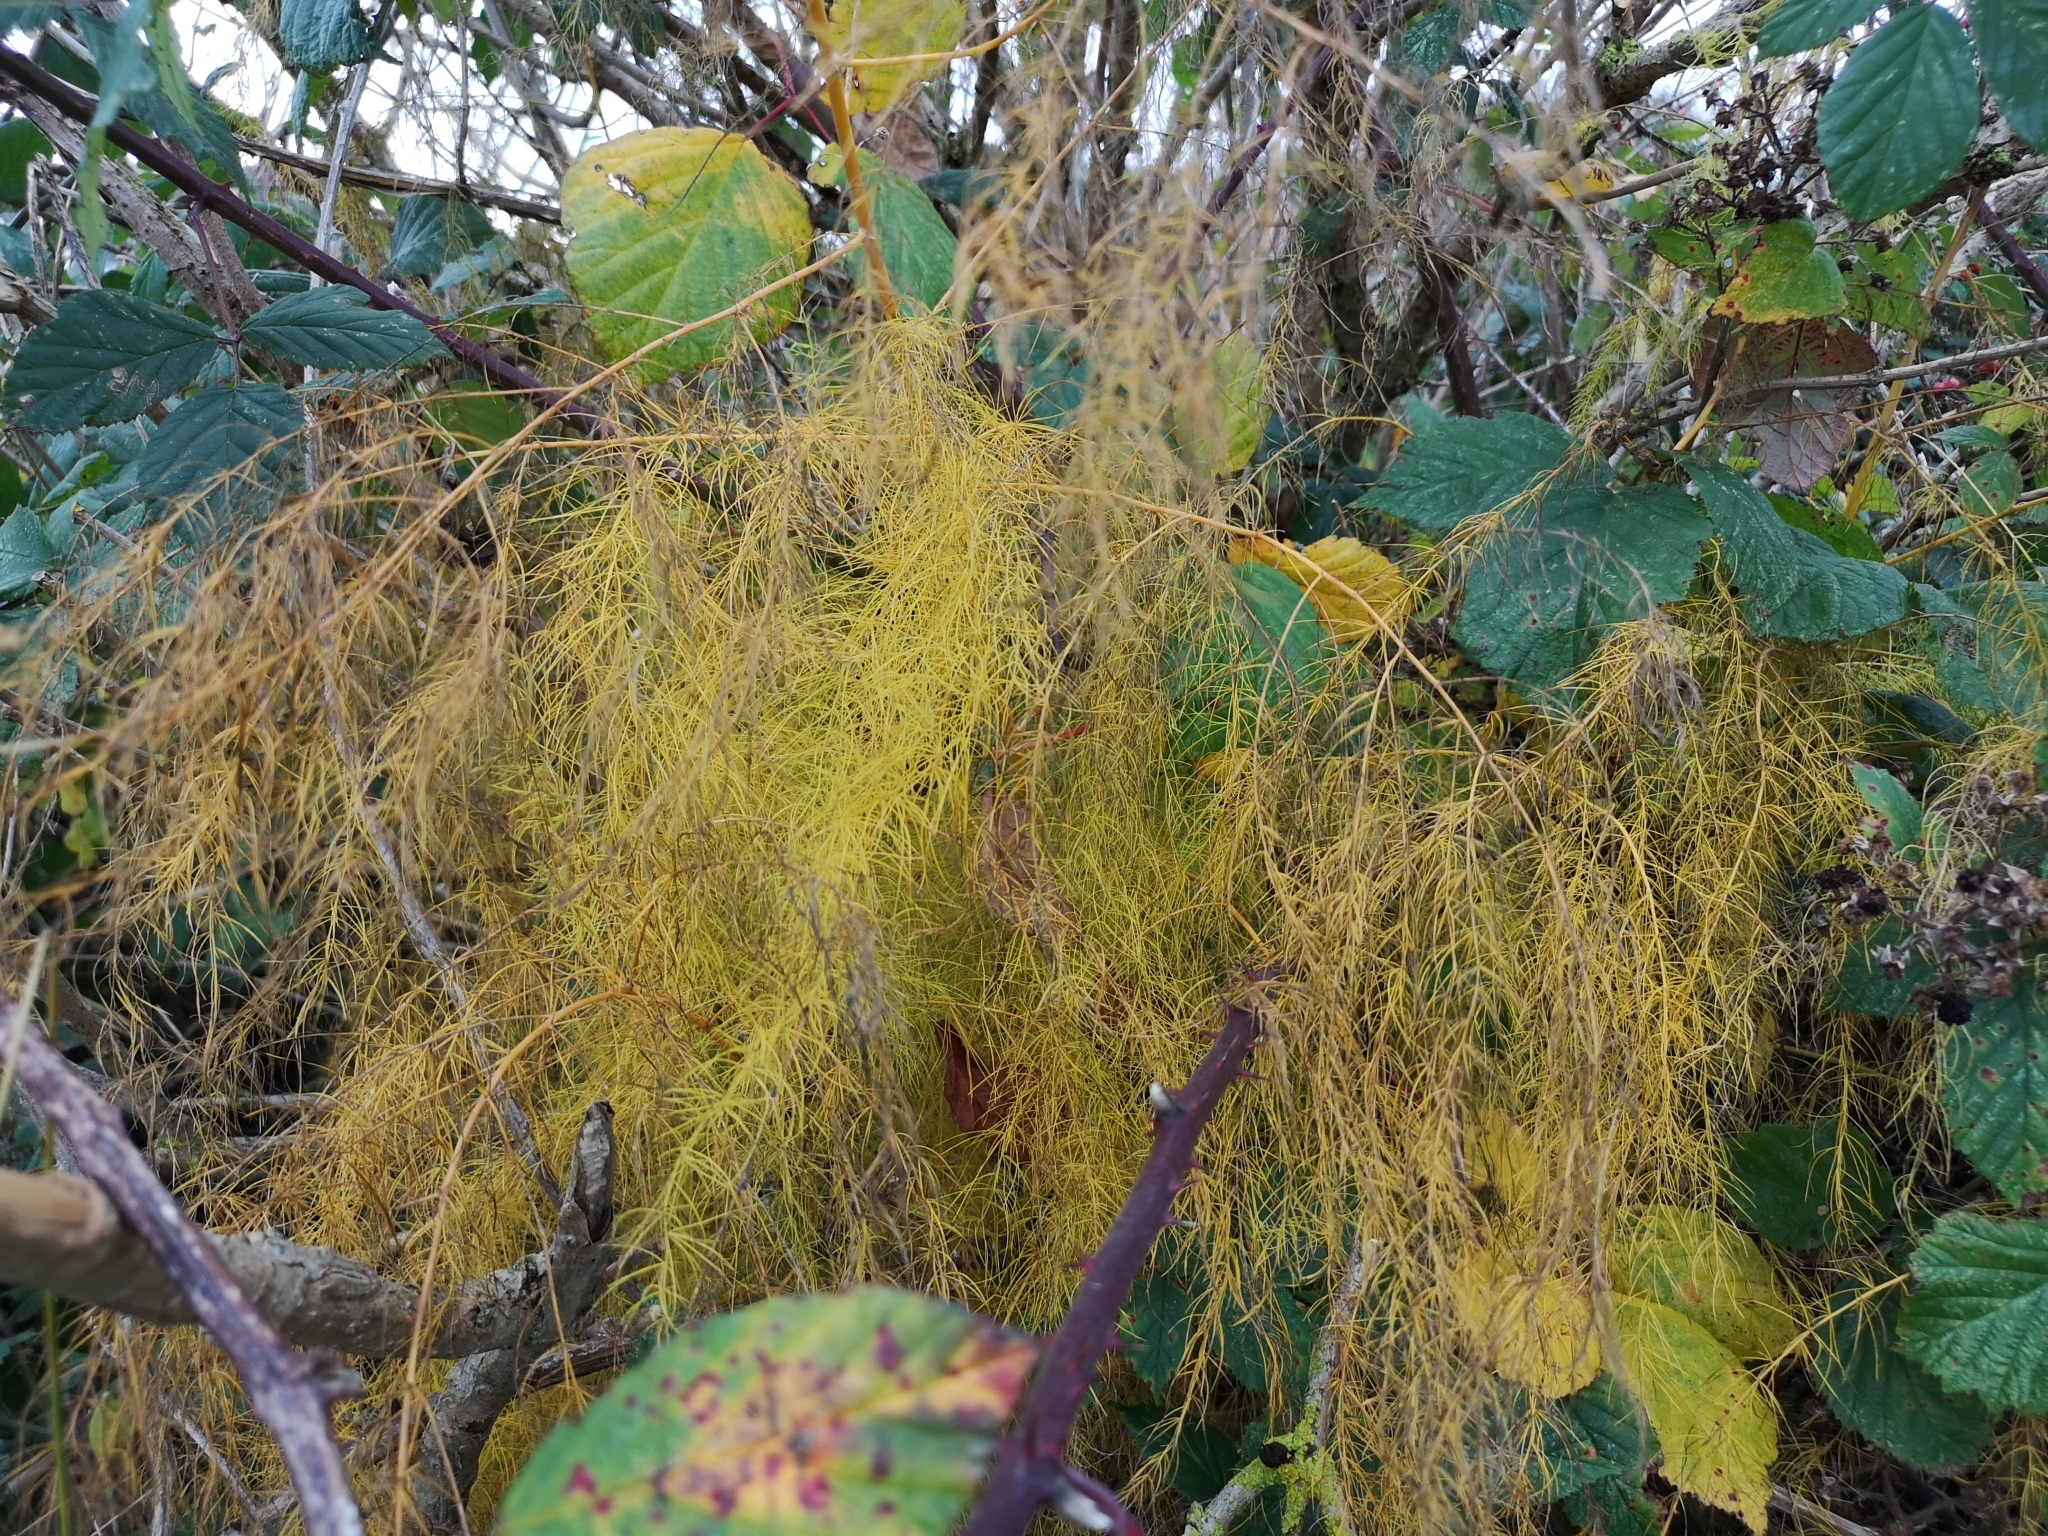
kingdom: Plantae
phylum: Tracheophyta
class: Liliopsida
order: Asparagales
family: Asparagaceae
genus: Asparagus
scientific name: Asparagus officinalis
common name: Garden asparagus
